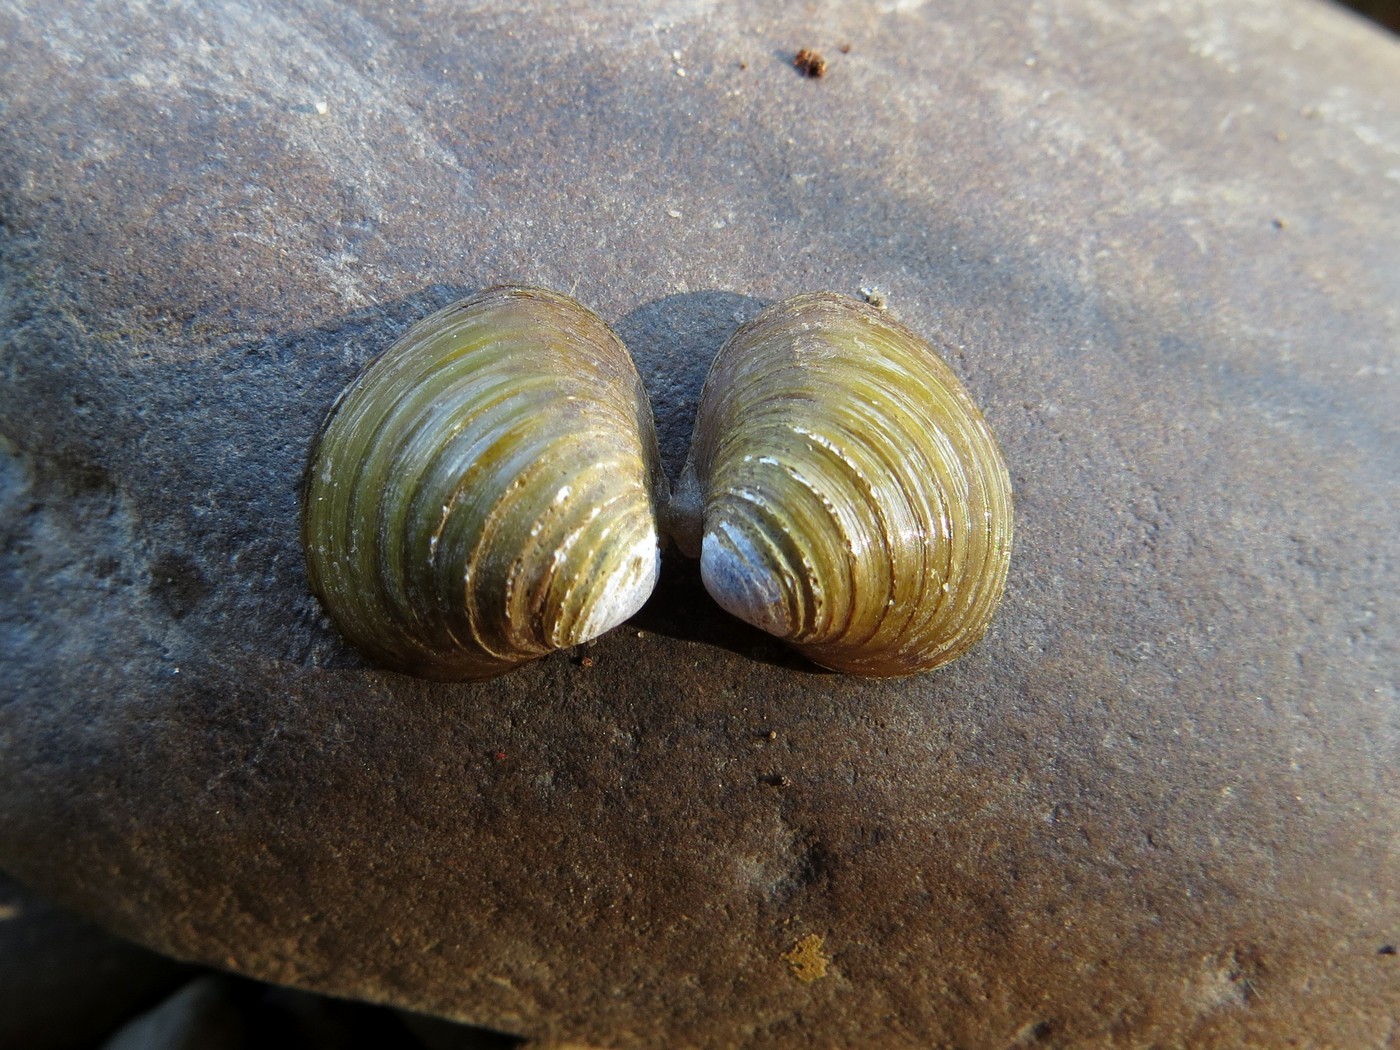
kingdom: Animalia
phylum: Mollusca
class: Bivalvia
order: Venerida
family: Cyrenidae
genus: Corbicula
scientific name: Corbicula fluminea
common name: Asian clam
